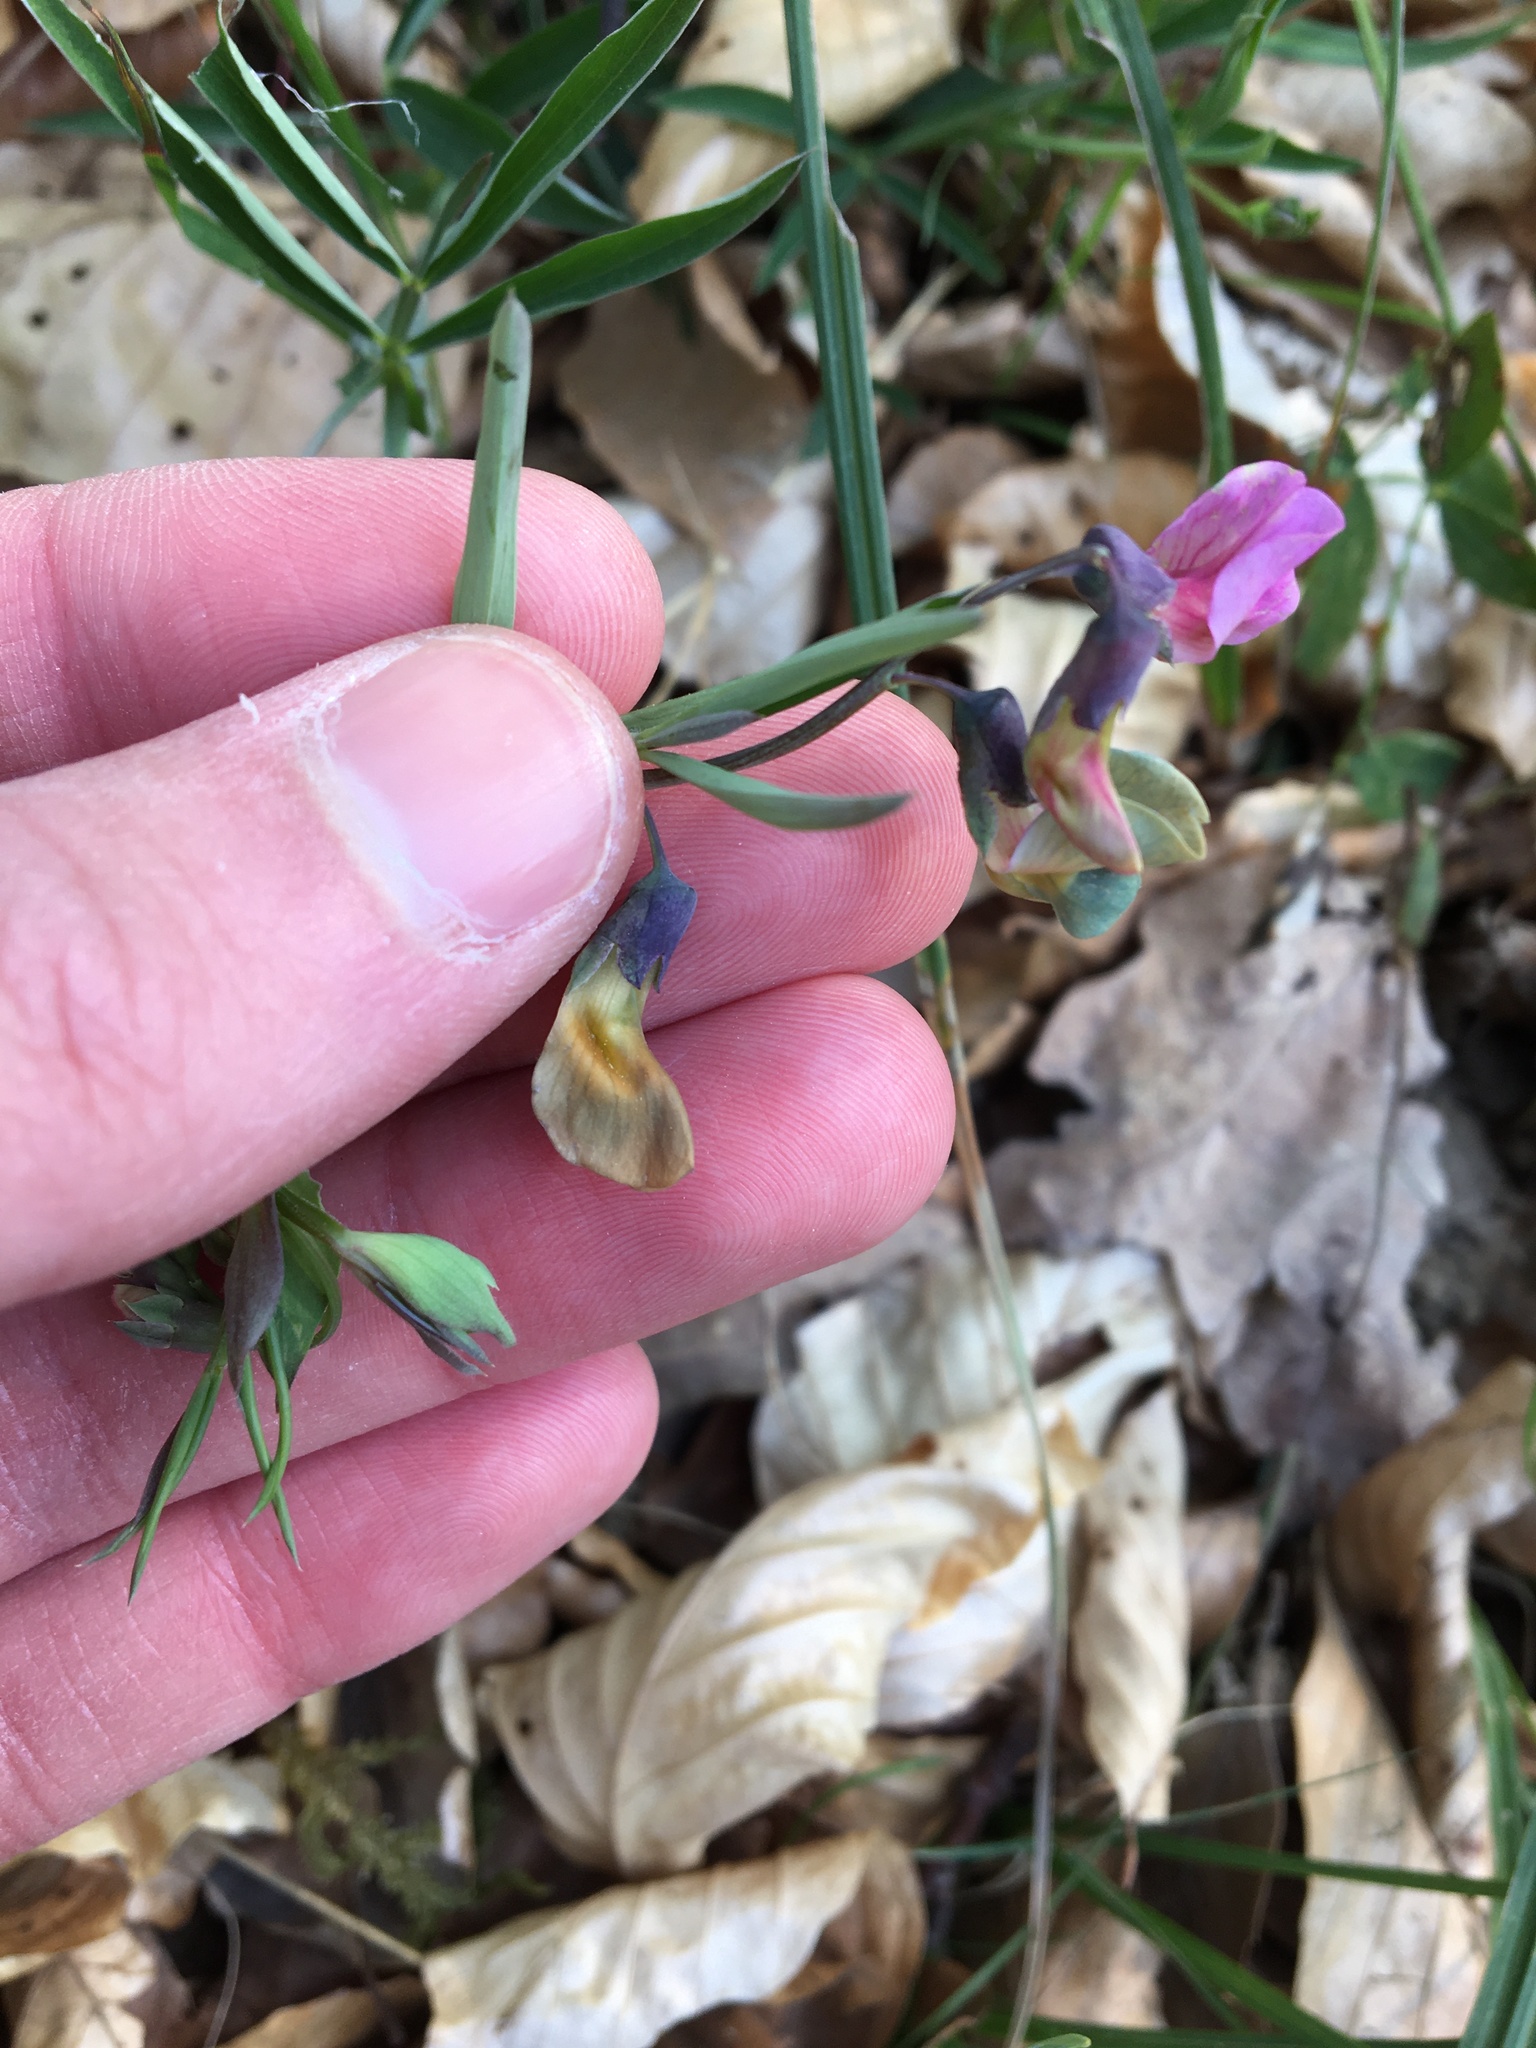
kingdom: Plantae
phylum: Tracheophyta
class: Magnoliopsida
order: Fabales
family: Fabaceae
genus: Lathyrus
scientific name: Lathyrus linifolius
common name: Bitter-vetch
